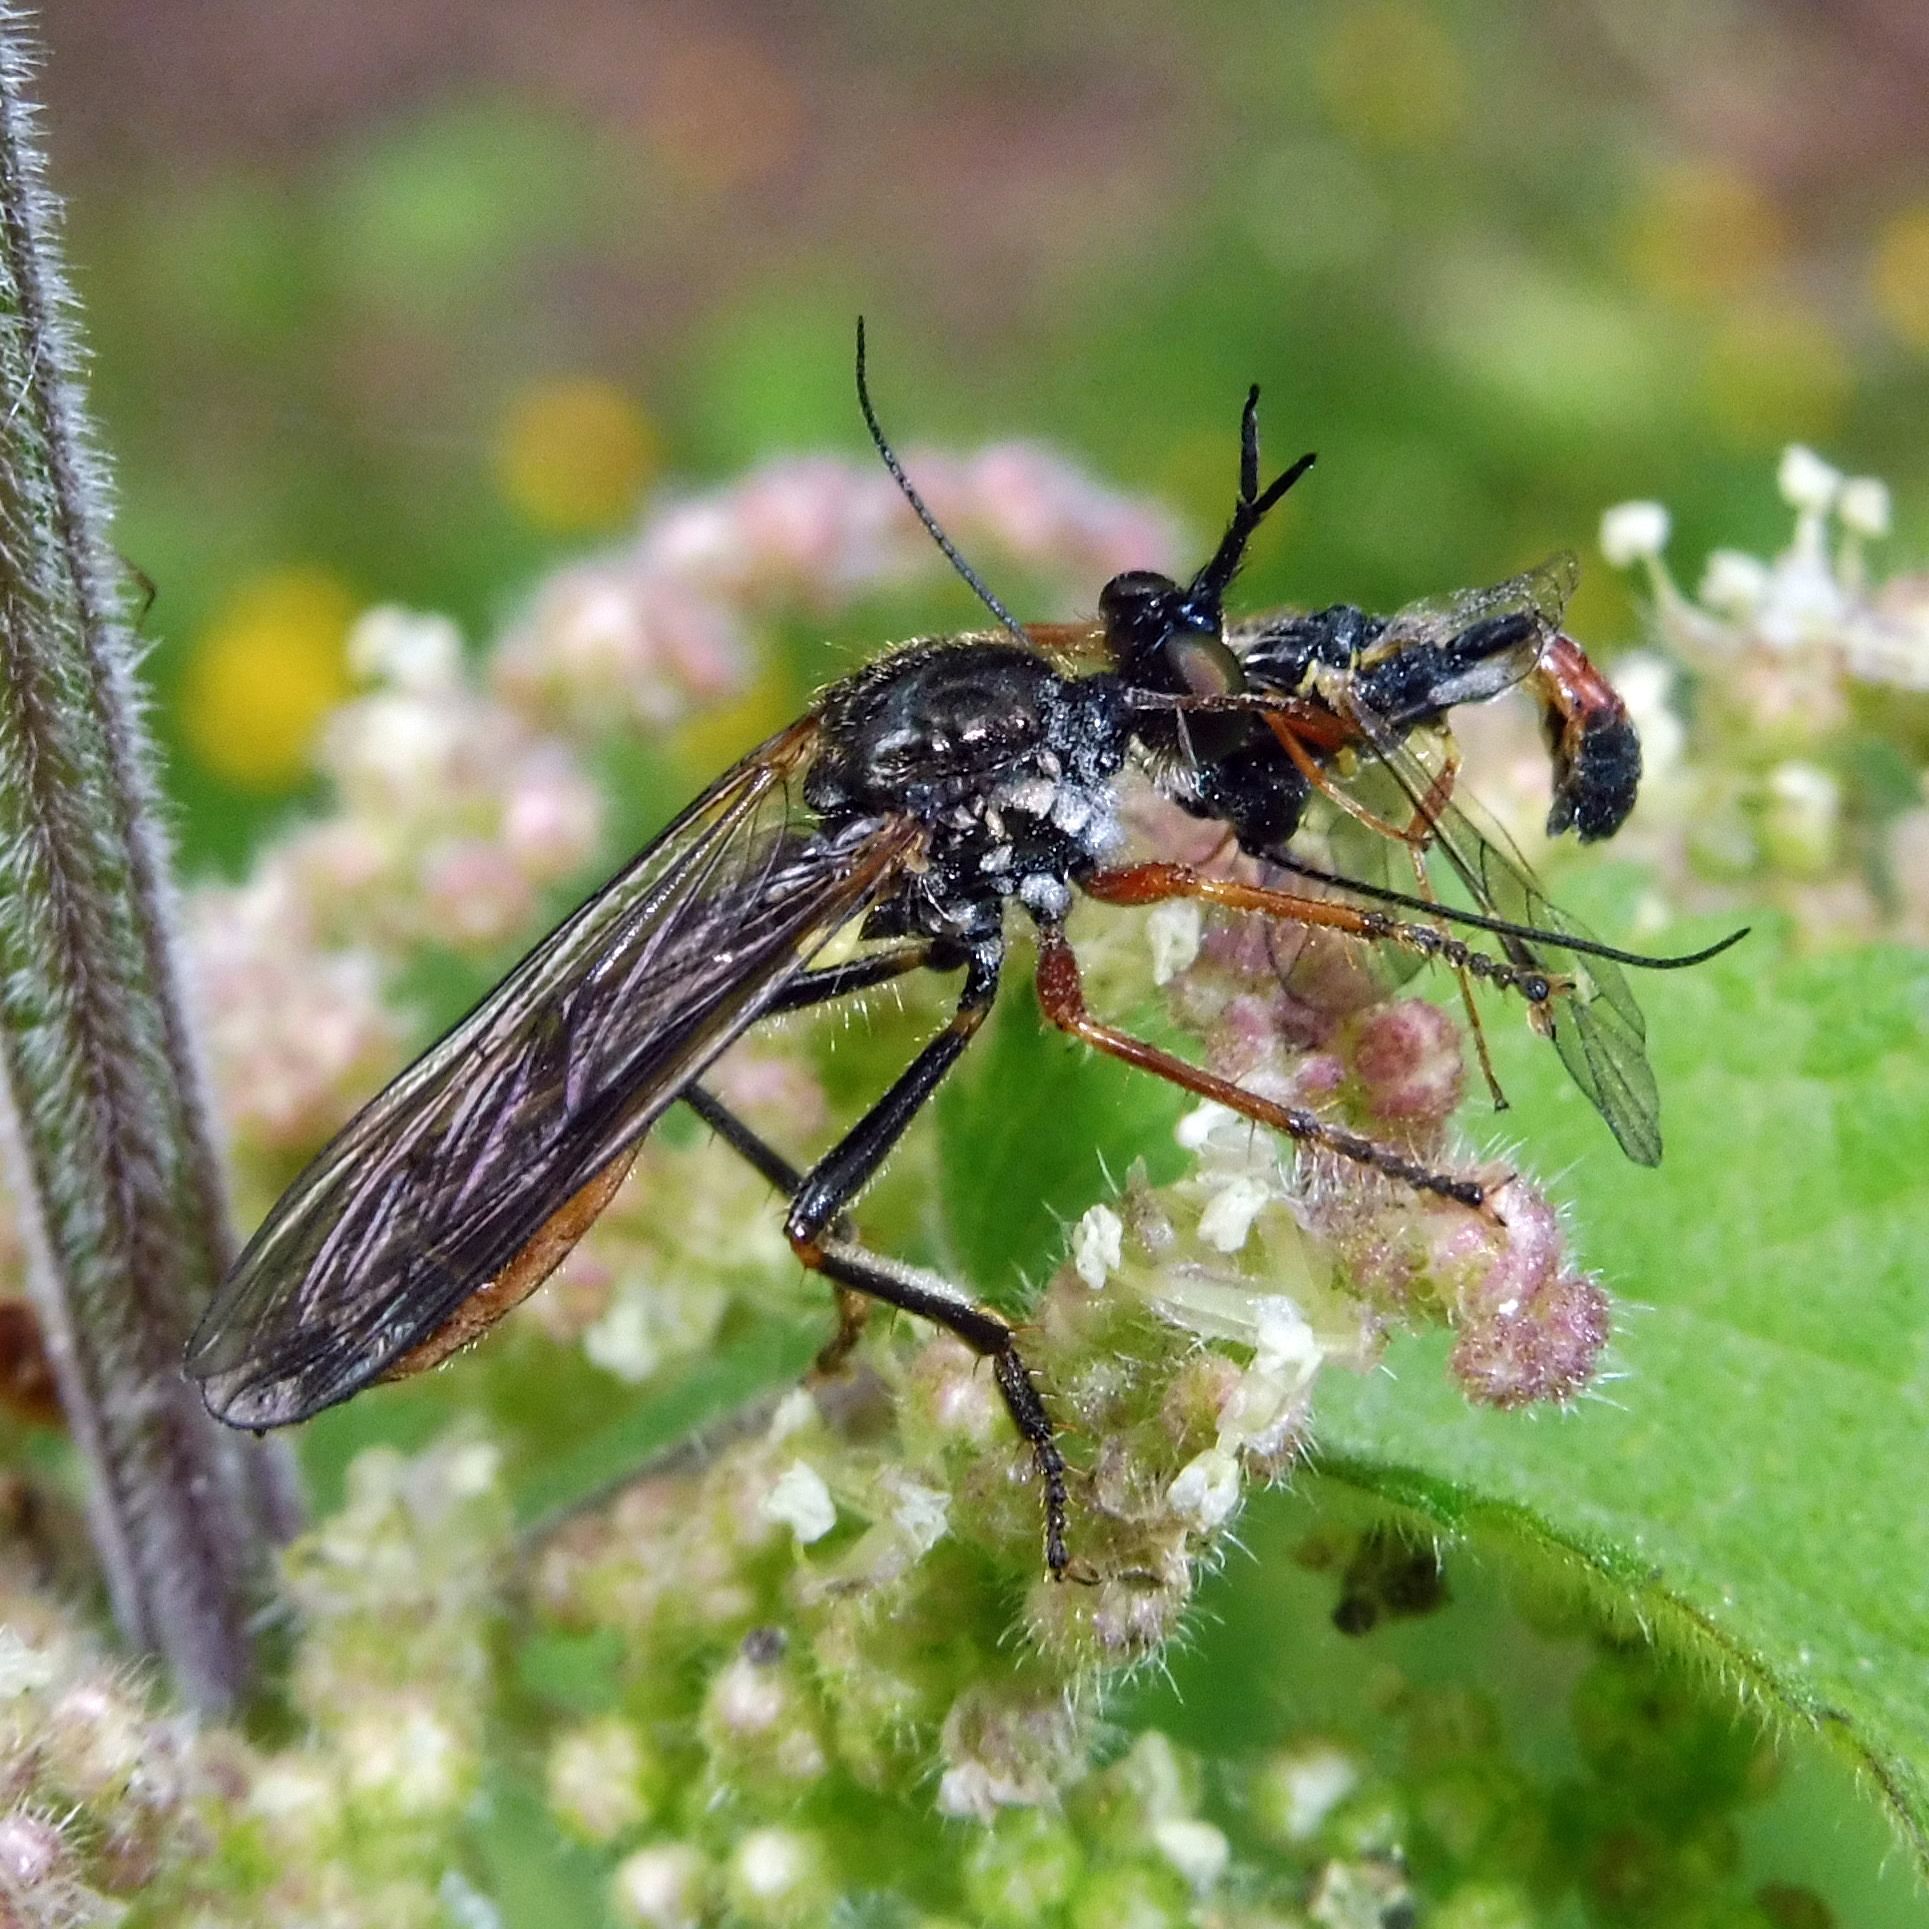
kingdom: Animalia
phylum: Arthropoda
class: Insecta
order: Diptera
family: Asilidae
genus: Dioctria
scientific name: Dioctria rufipes
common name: Common red-legged robberfly
